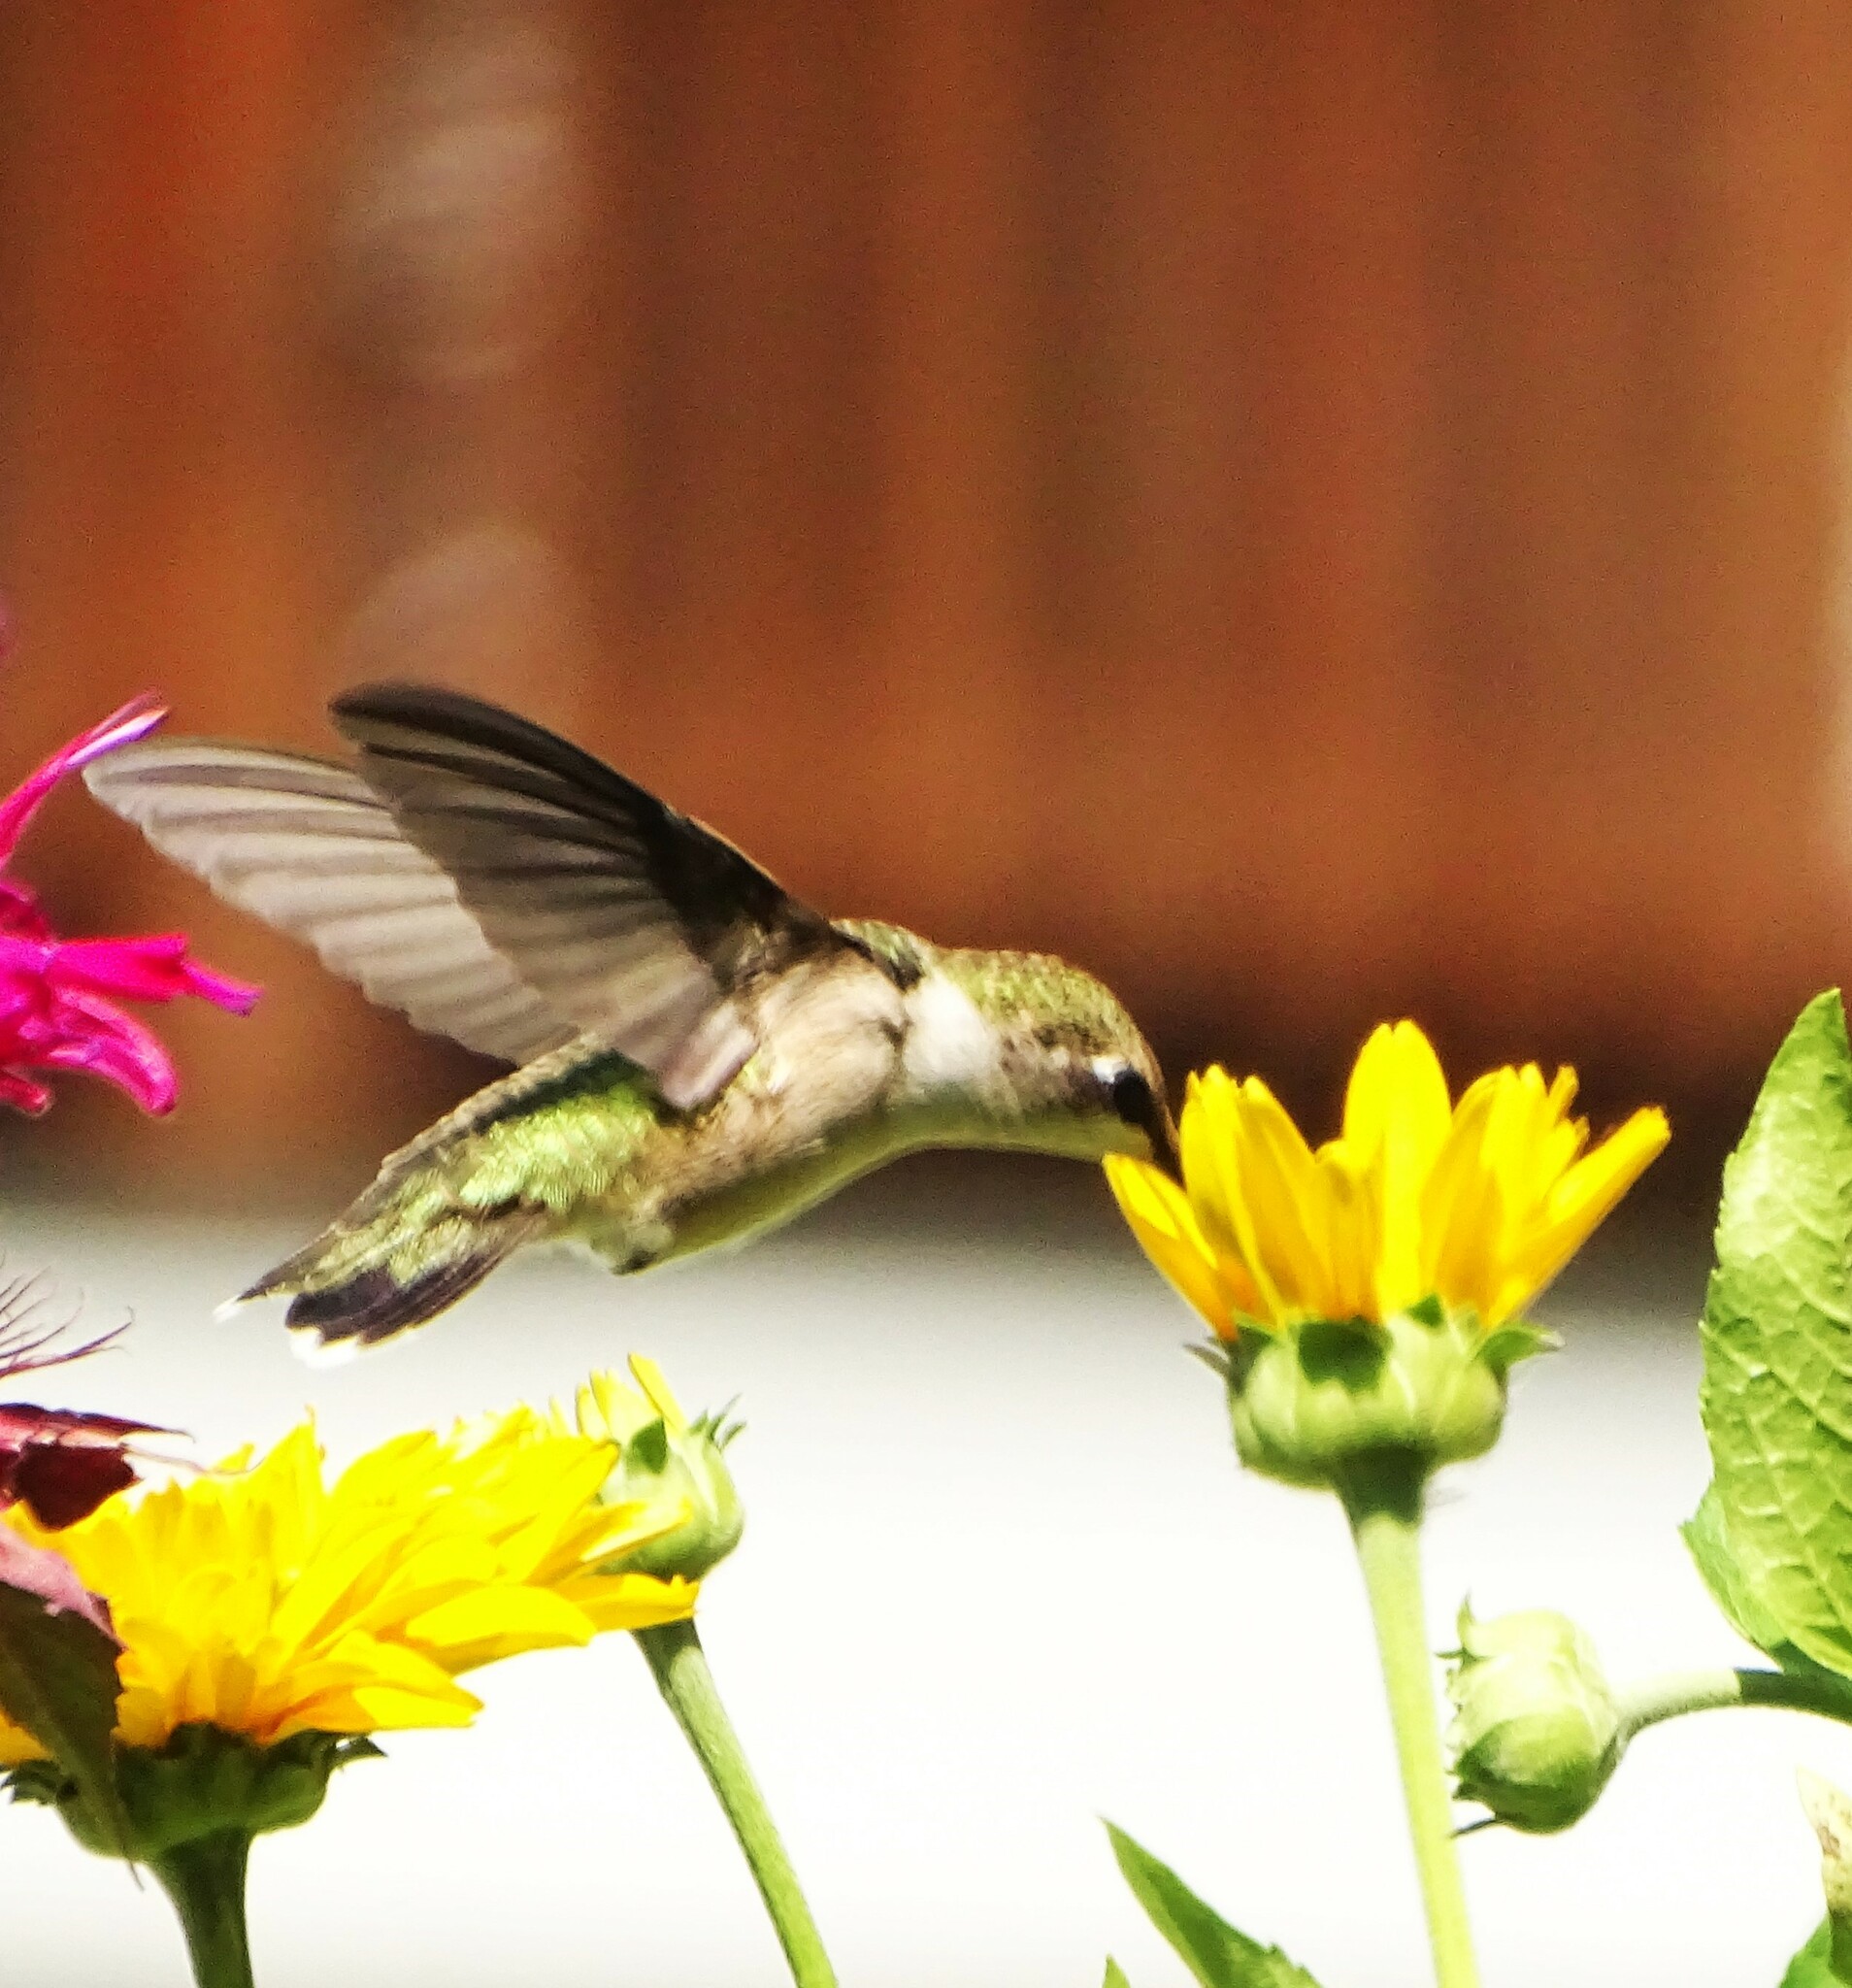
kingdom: Animalia
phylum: Chordata
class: Aves
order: Apodiformes
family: Trochilidae
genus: Archilochus
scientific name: Archilochus colubris
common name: Ruby-throated hummingbird
